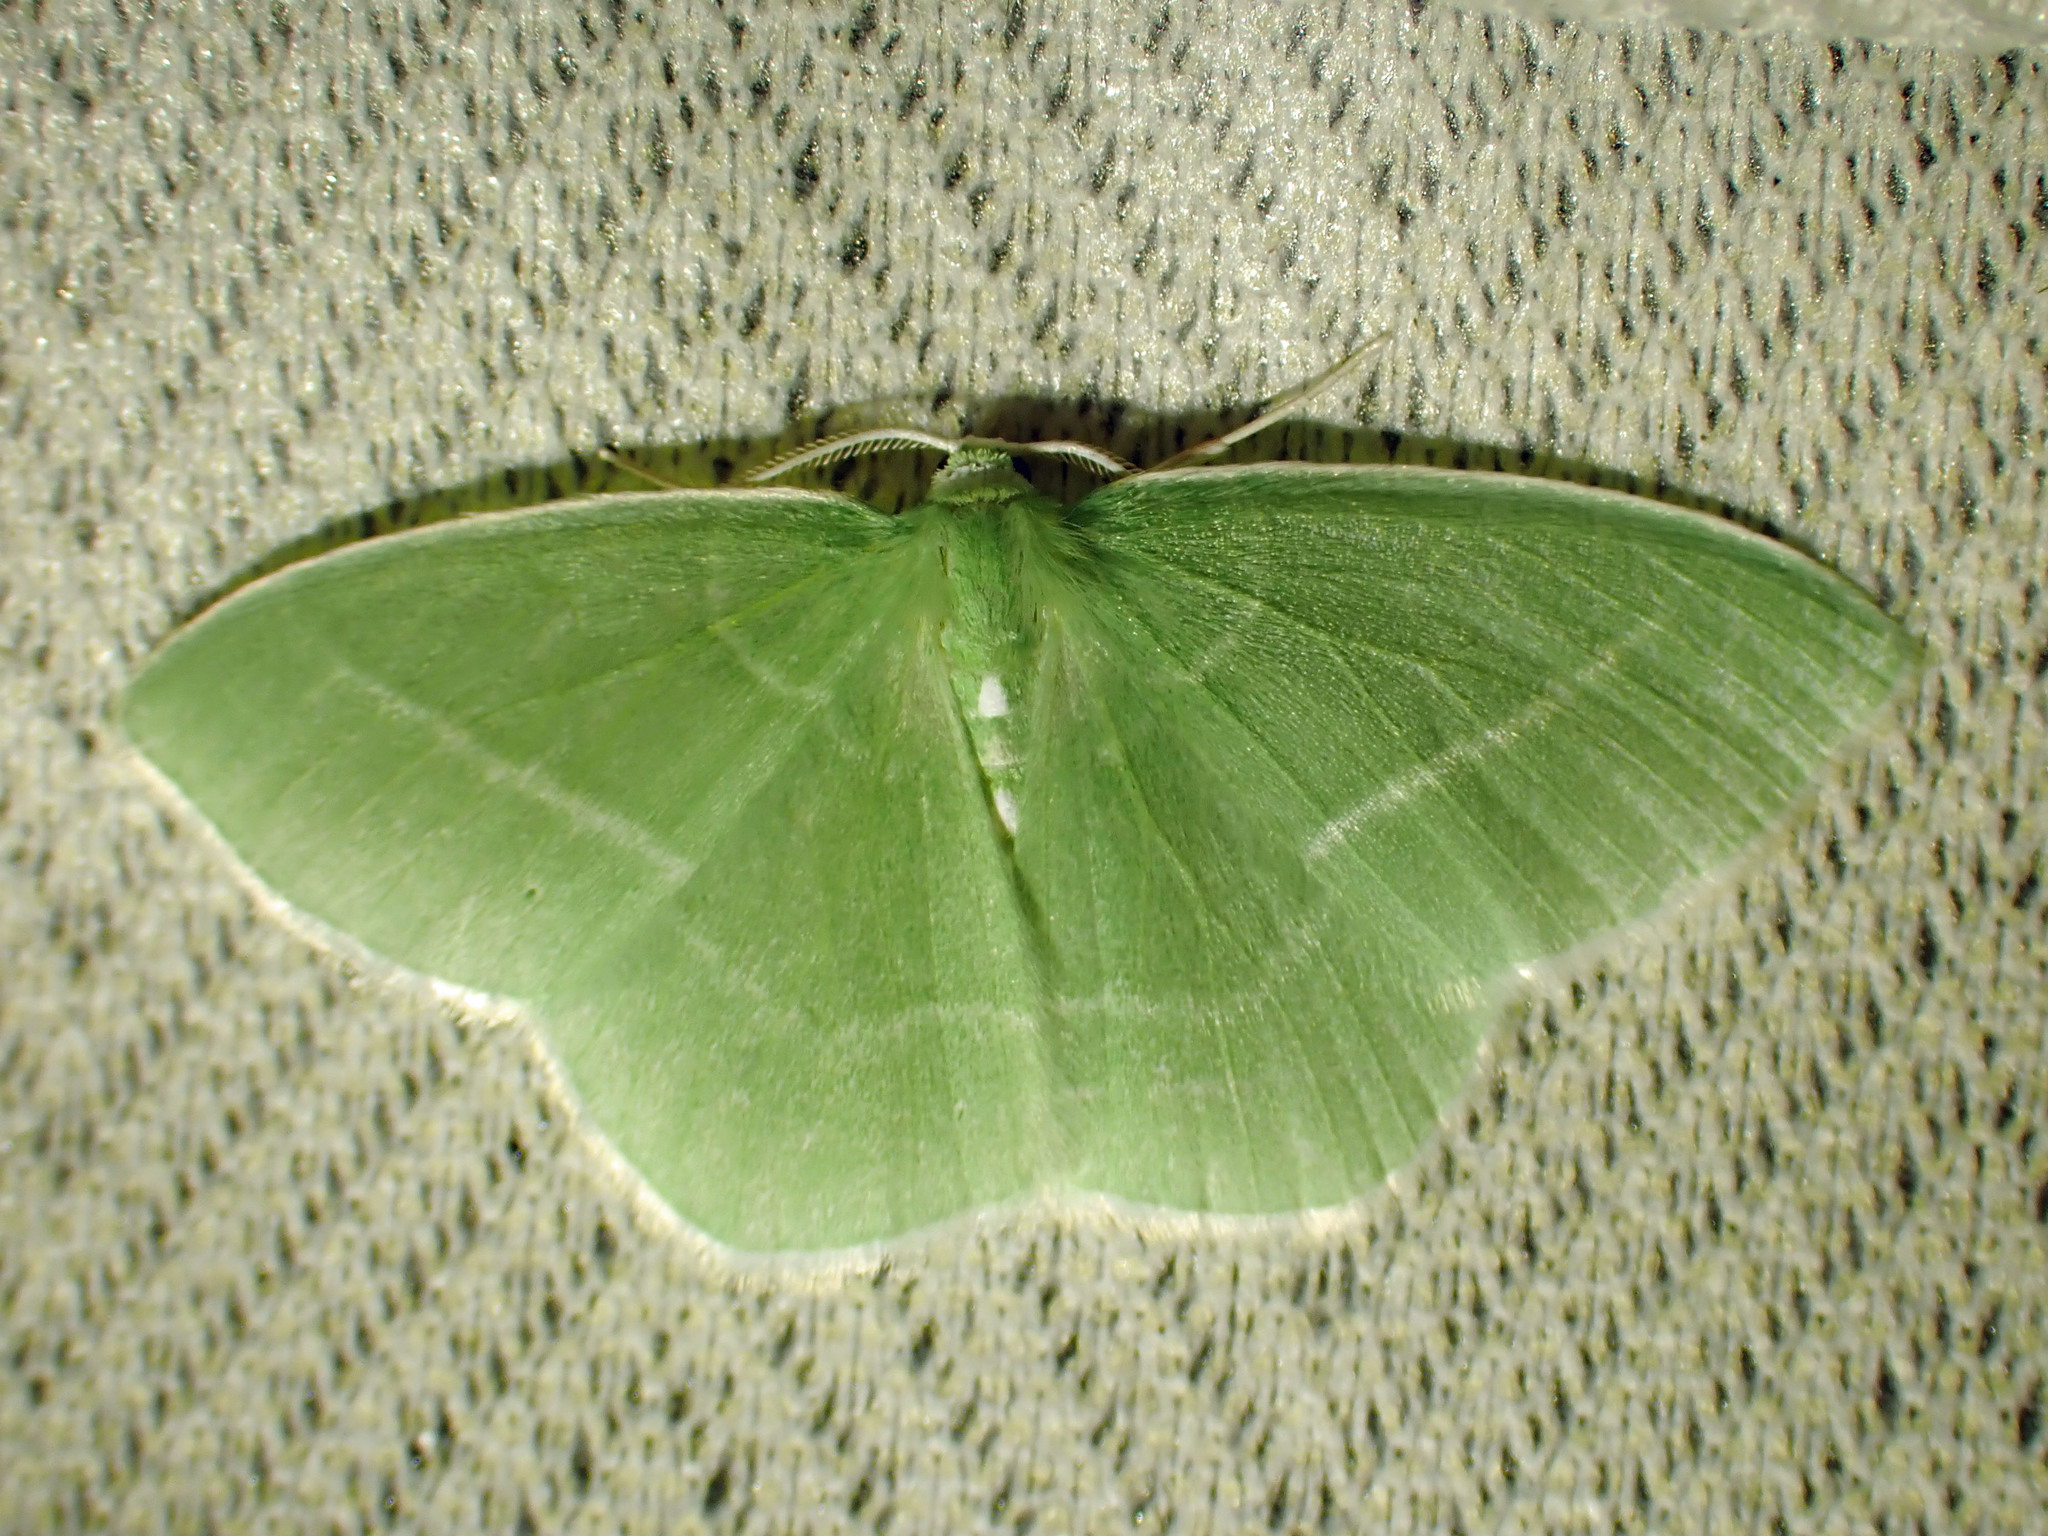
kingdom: Animalia
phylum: Arthropoda
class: Insecta
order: Lepidoptera
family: Geometridae
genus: Nemoria
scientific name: Nemoria mimosaria
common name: White-fringed emerald
